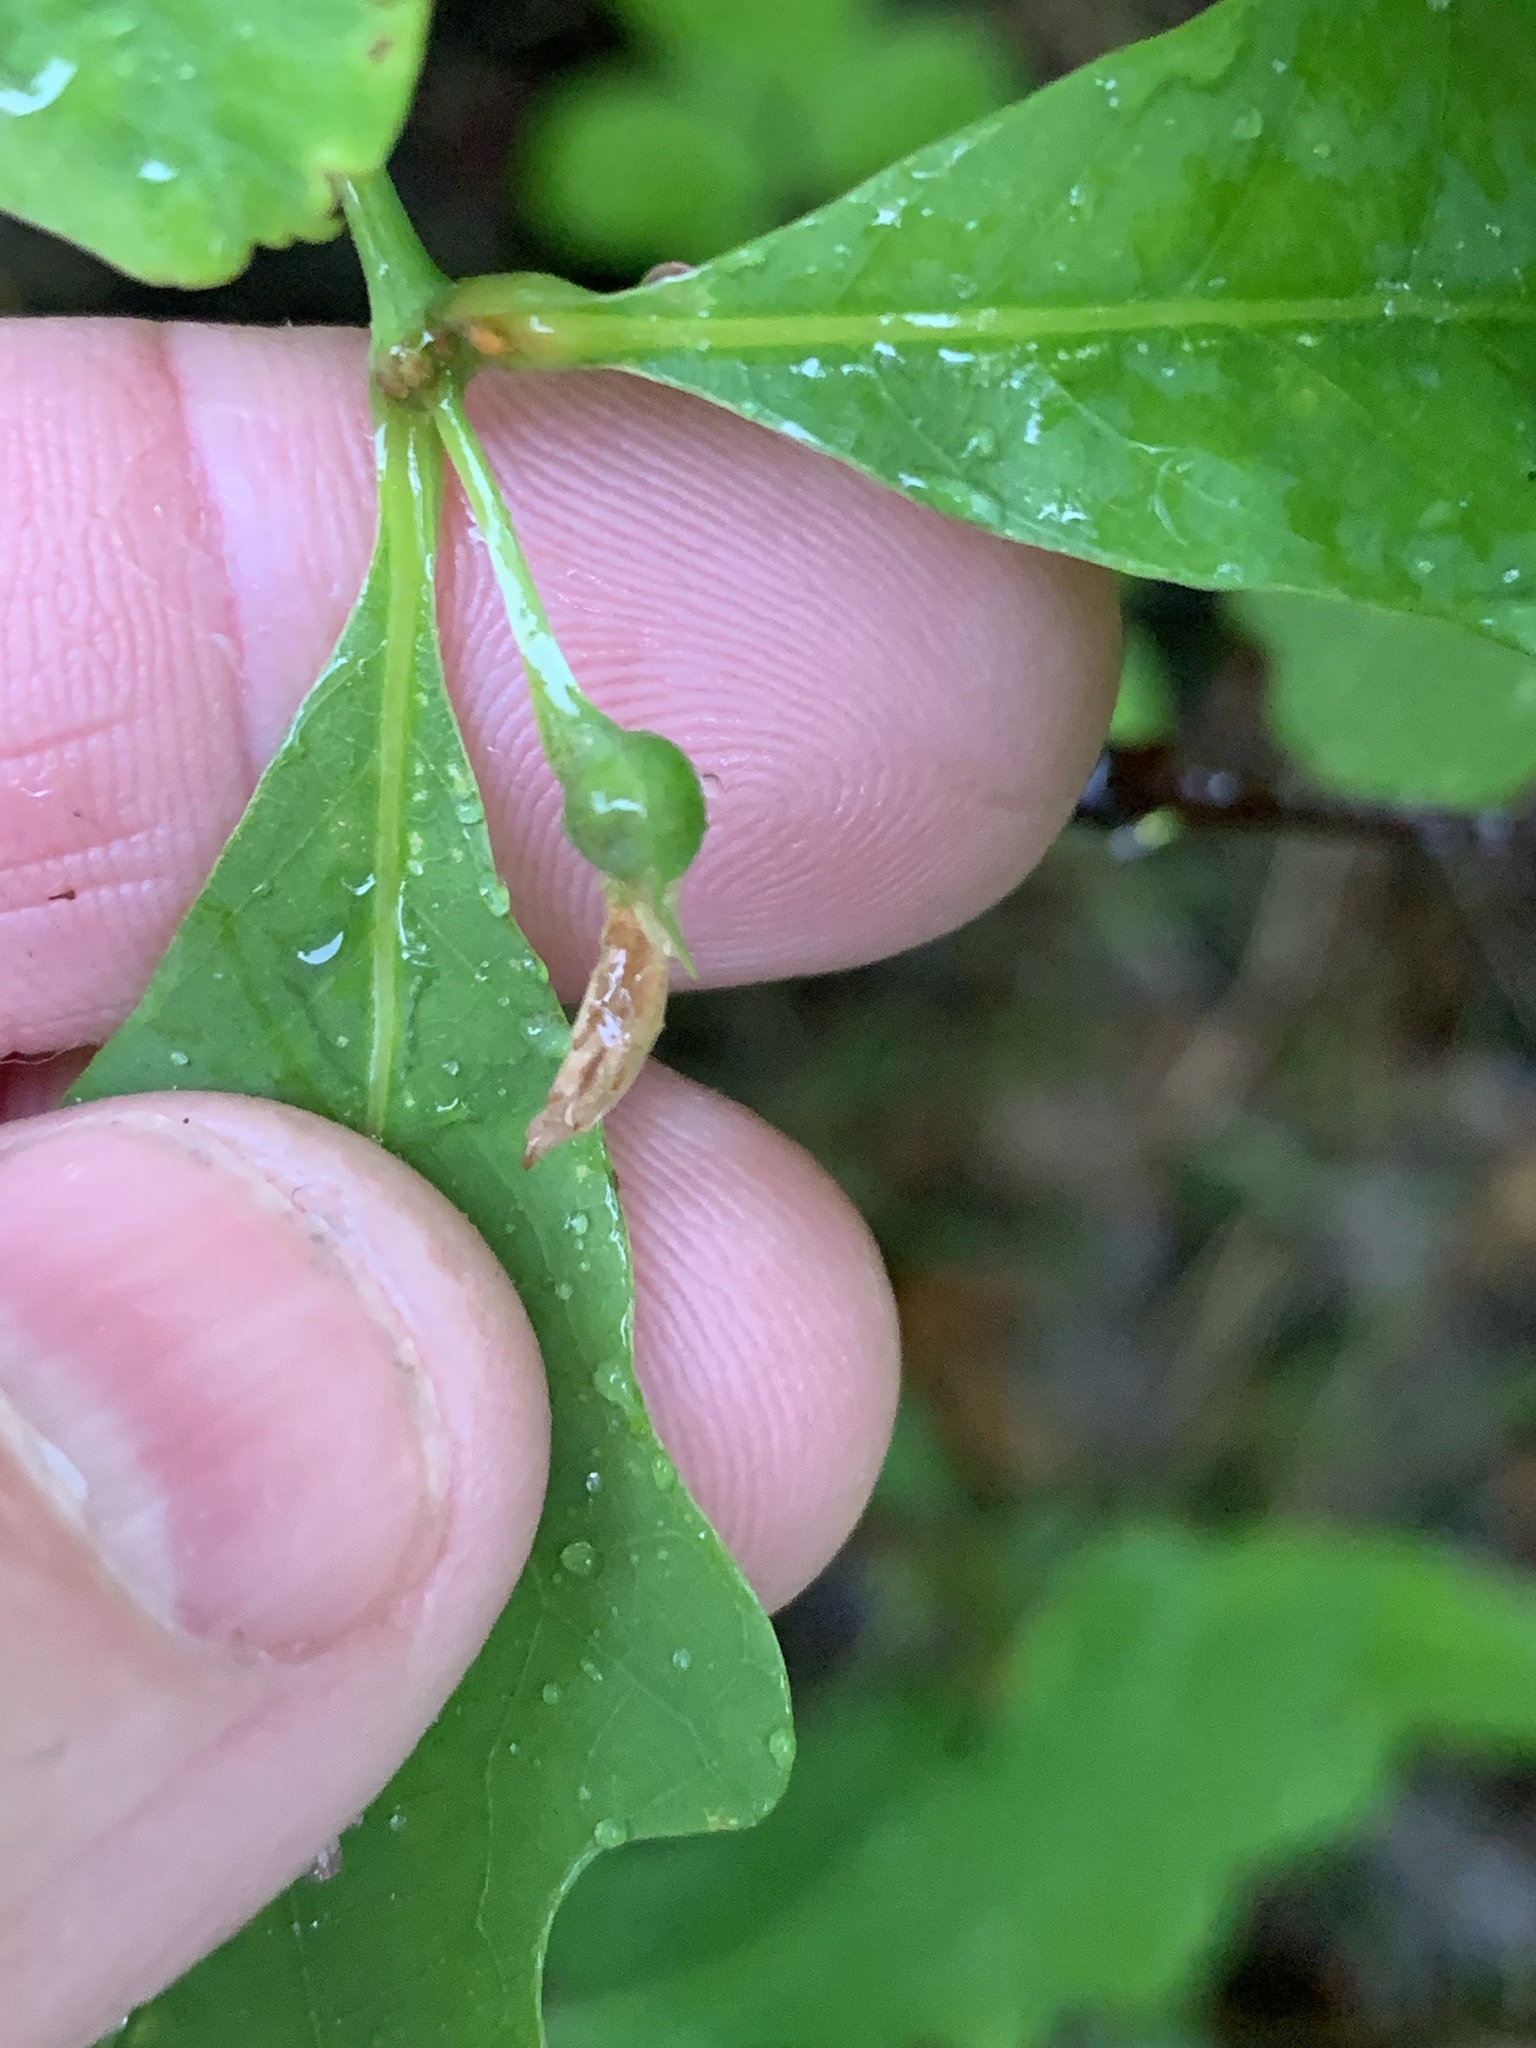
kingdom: Animalia
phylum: Arthropoda
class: Insecta
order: Hymenoptera
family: Cynipidae
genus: Andricus
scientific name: Andricus
